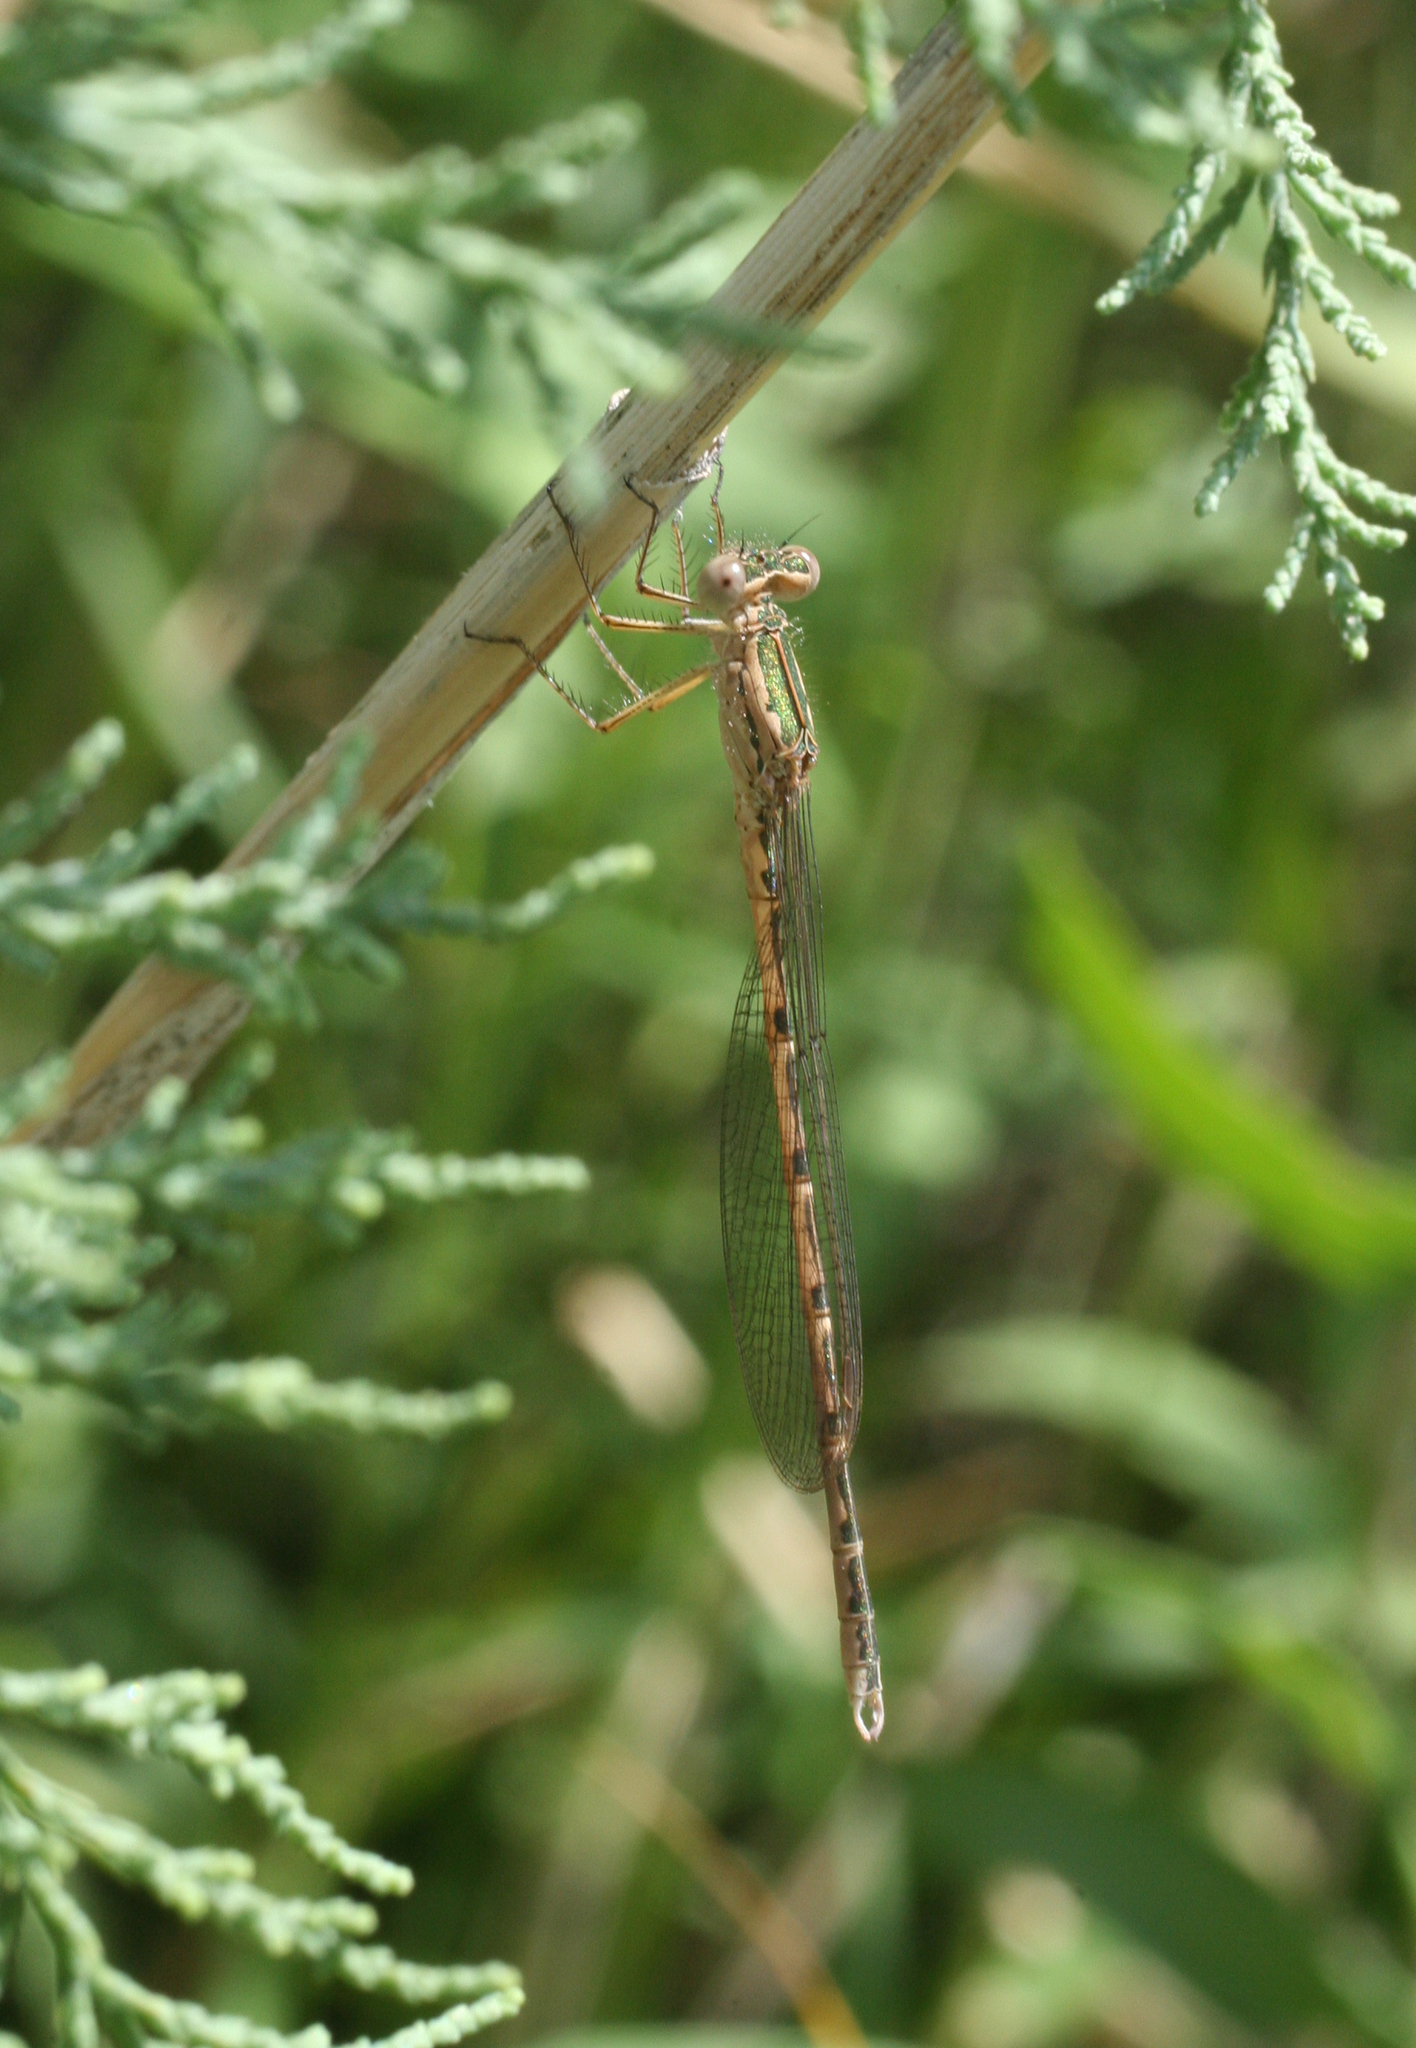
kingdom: Animalia
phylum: Arthropoda
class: Insecta
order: Odonata
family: Lestidae
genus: Sympecma
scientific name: Sympecma paedisca
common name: Siberian winter damsel
